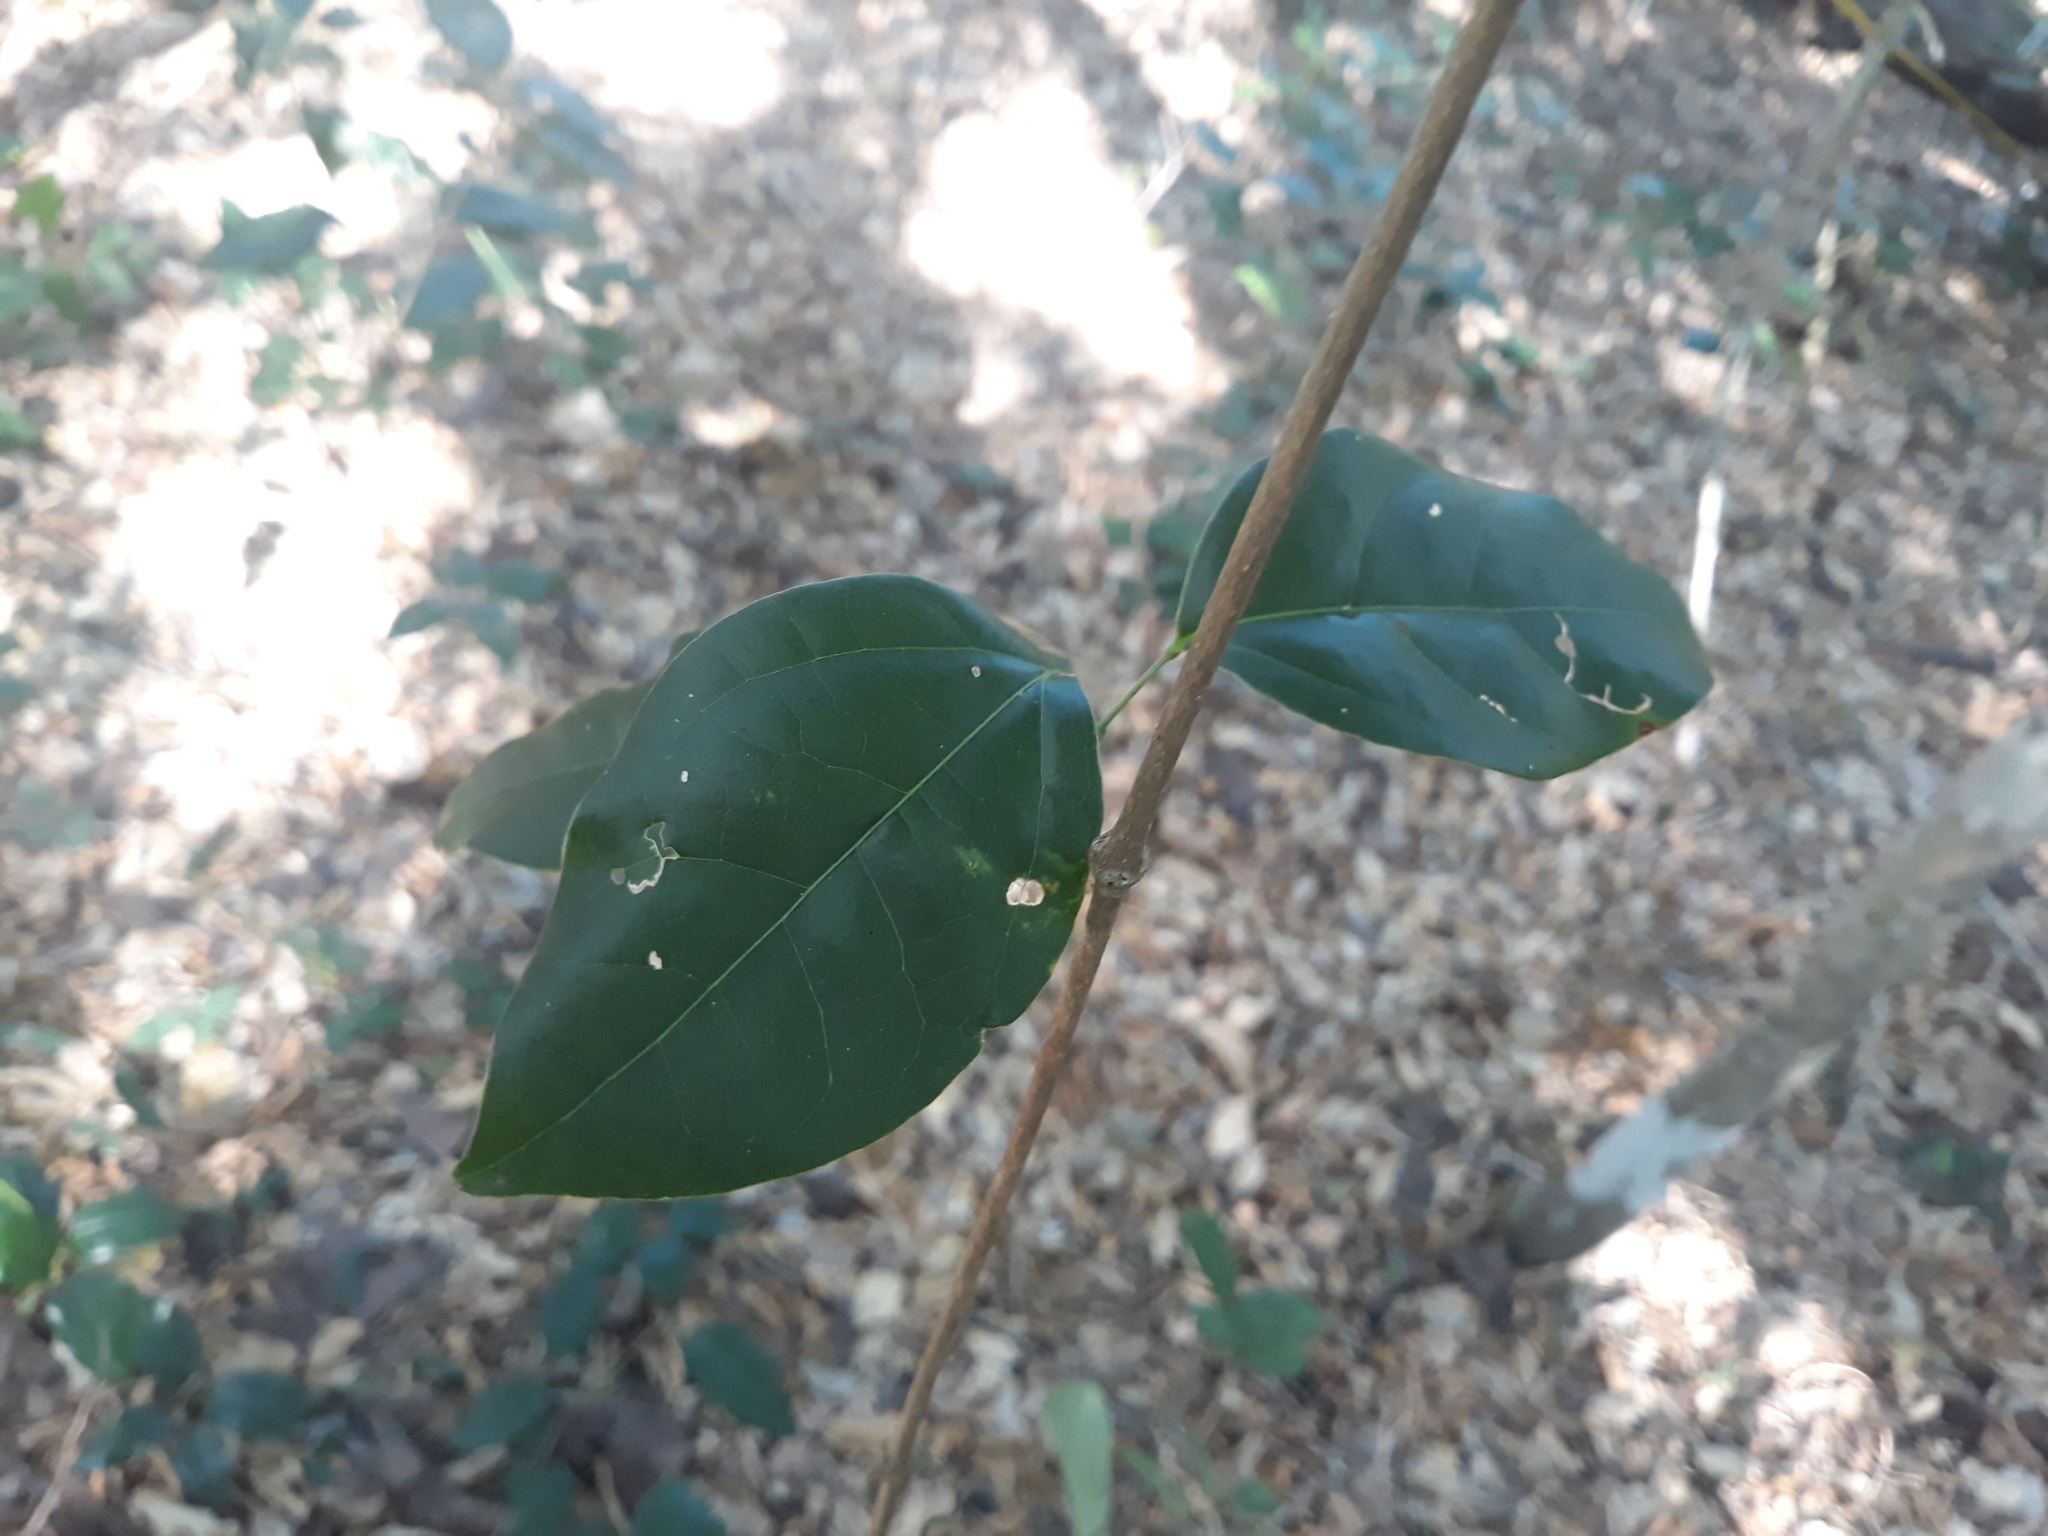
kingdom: Plantae
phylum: Tracheophyta
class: Magnoliopsida
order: Lamiales
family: Bignoniaceae
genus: Bignonia
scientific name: Bignonia aequinoctialis
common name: Garlicvine
